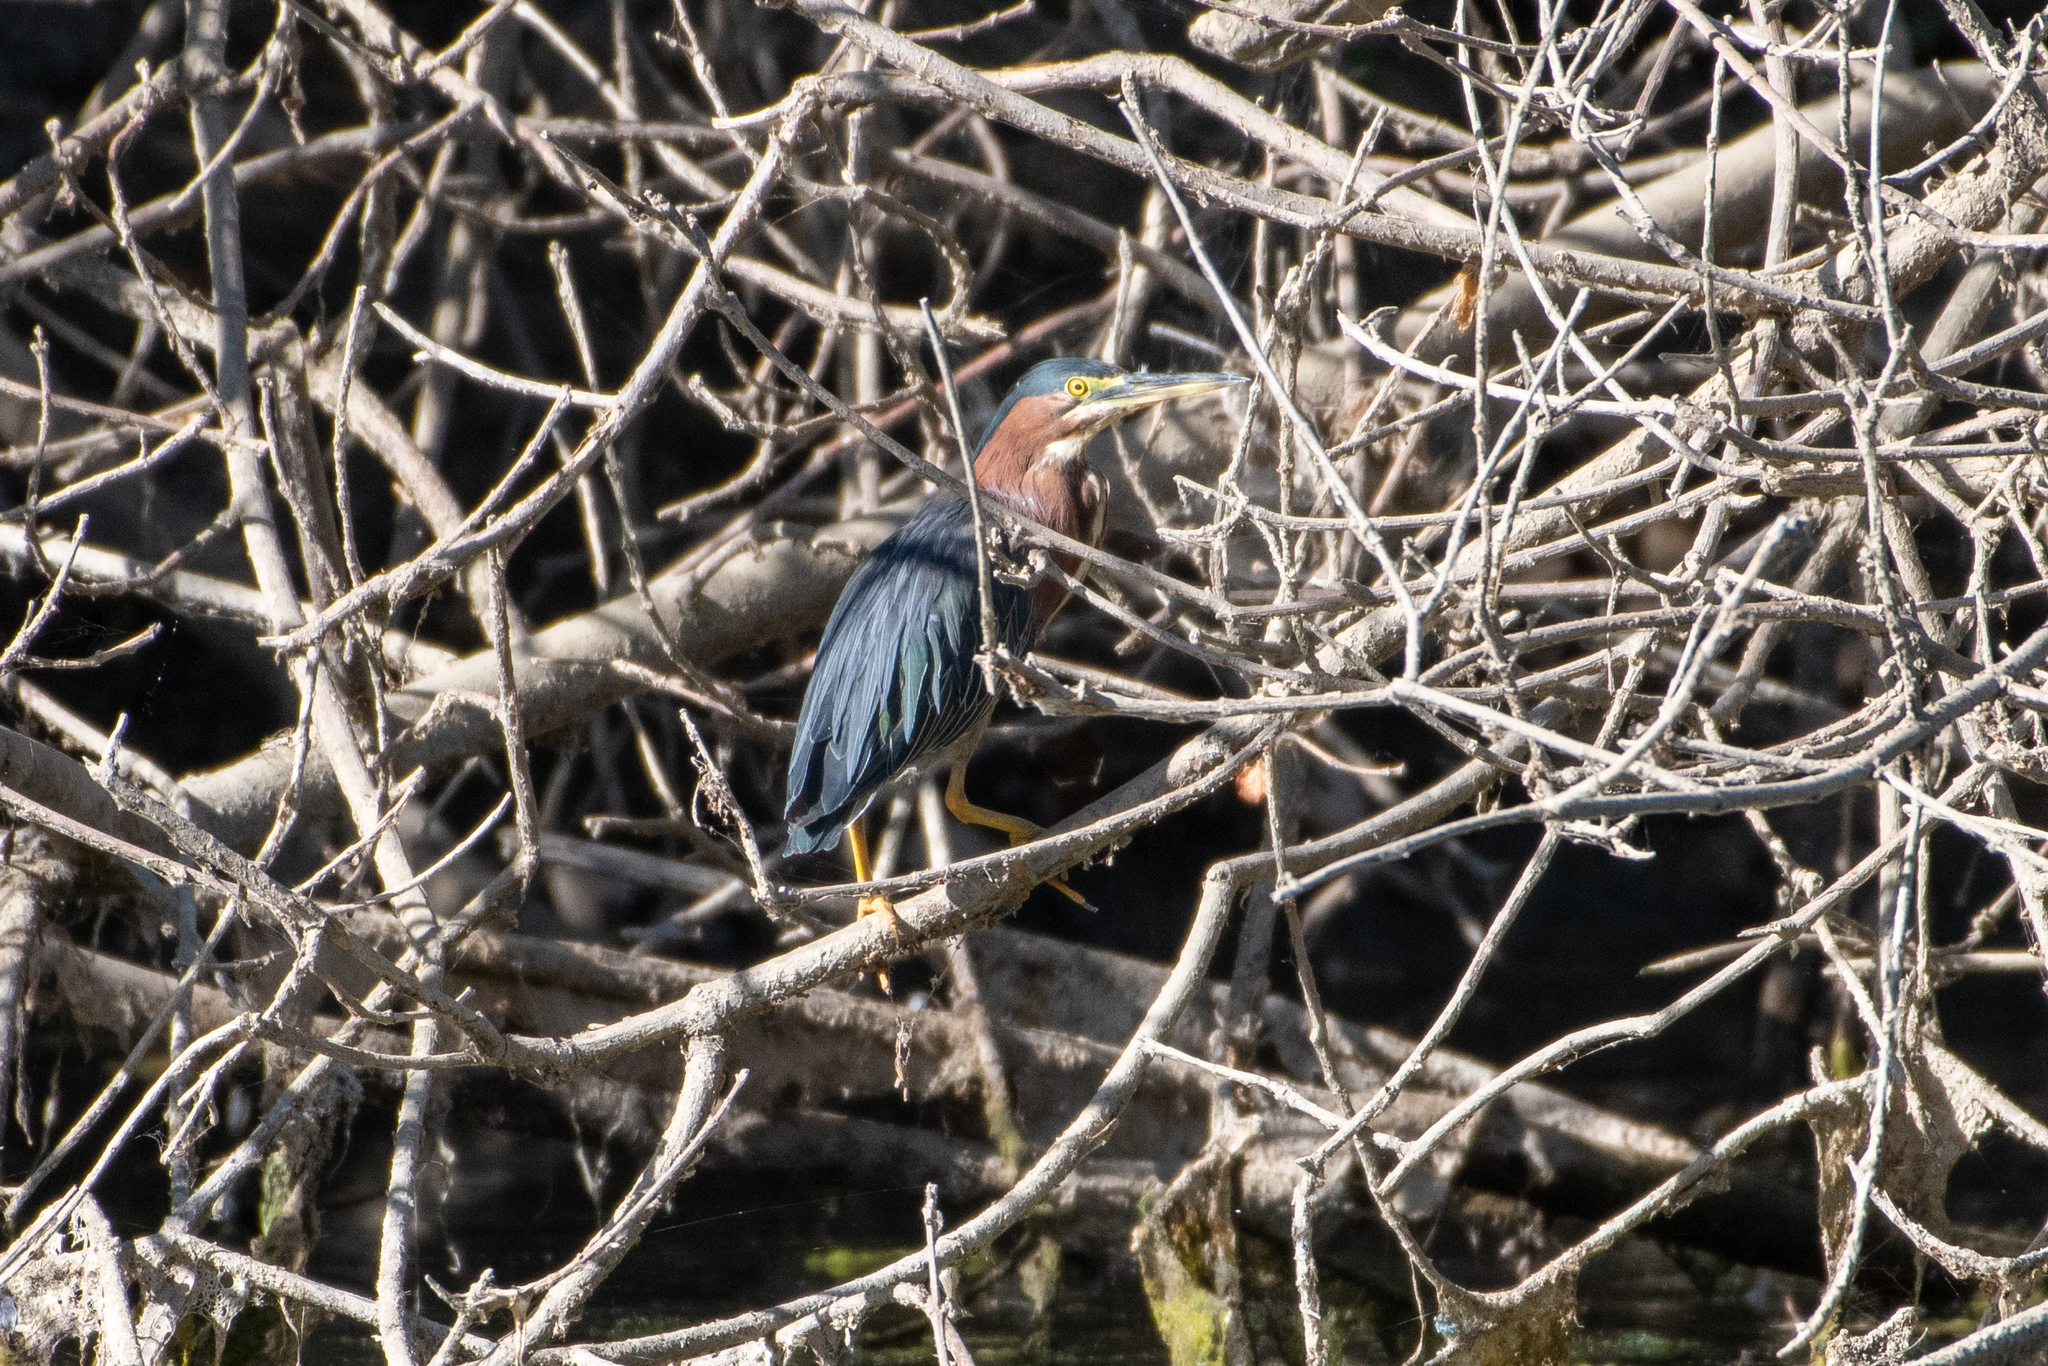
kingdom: Animalia
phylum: Chordata
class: Aves
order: Pelecaniformes
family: Ardeidae
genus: Butorides
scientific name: Butorides virescens
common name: Green heron
